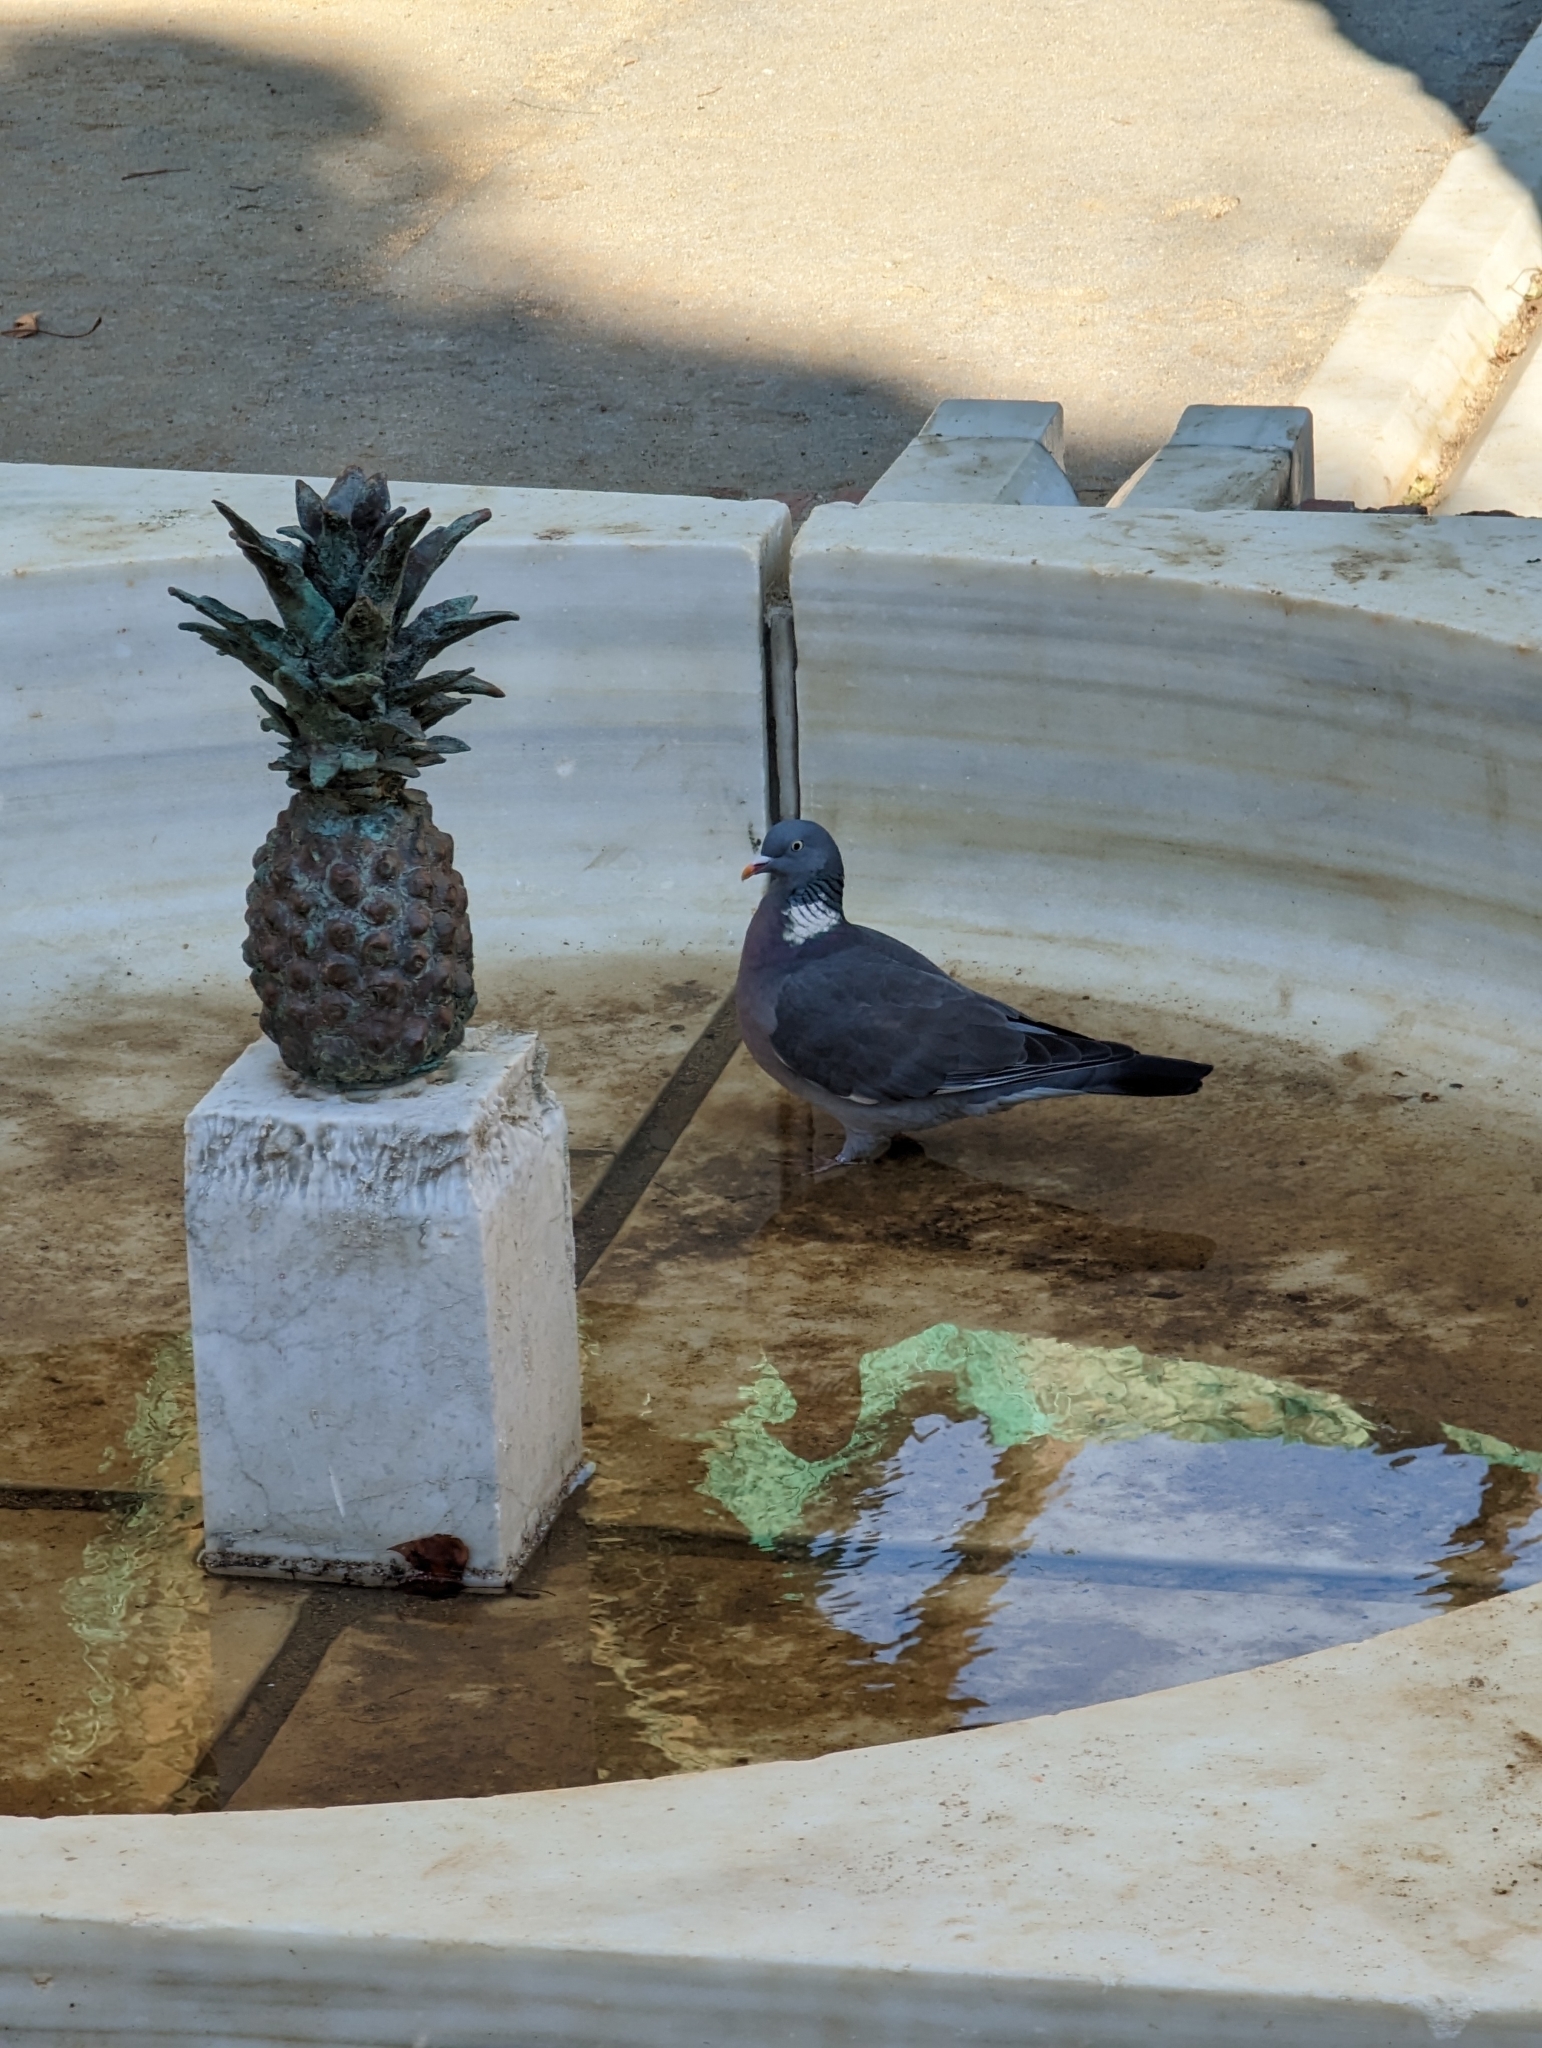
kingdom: Animalia
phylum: Chordata
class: Aves
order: Columbiformes
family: Columbidae
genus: Columba
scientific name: Columba palumbus
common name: Common wood pigeon
